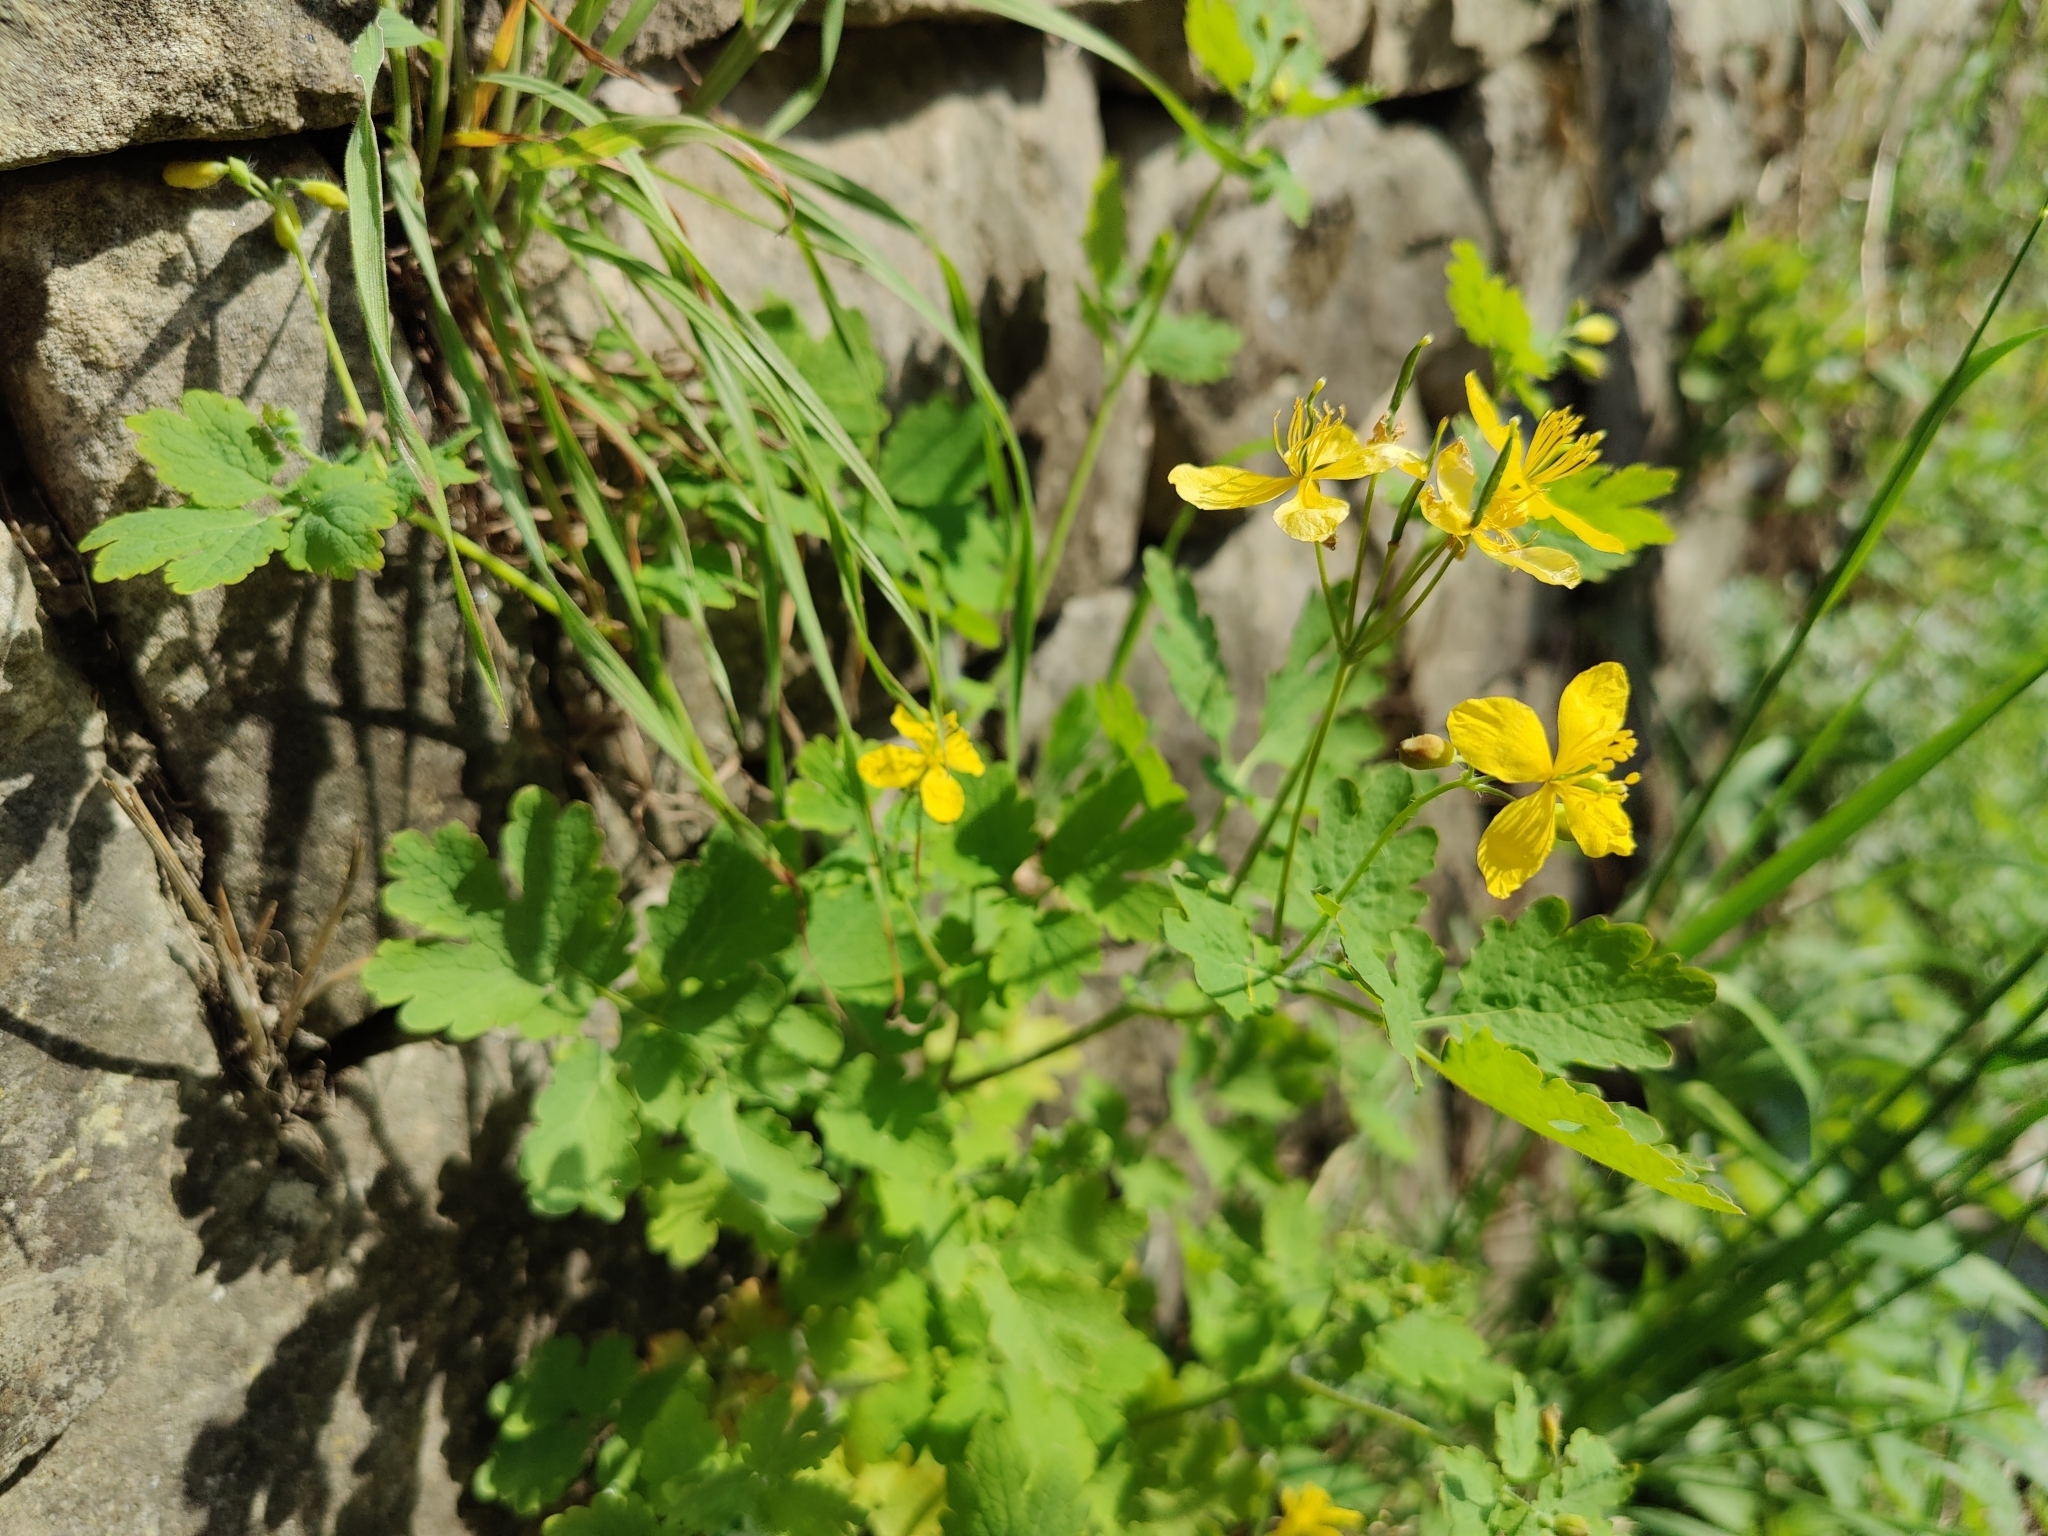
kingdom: Plantae
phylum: Tracheophyta
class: Magnoliopsida
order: Ranunculales
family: Papaveraceae
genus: Chelidonium
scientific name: Chelidonium majus
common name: Greater celandine
